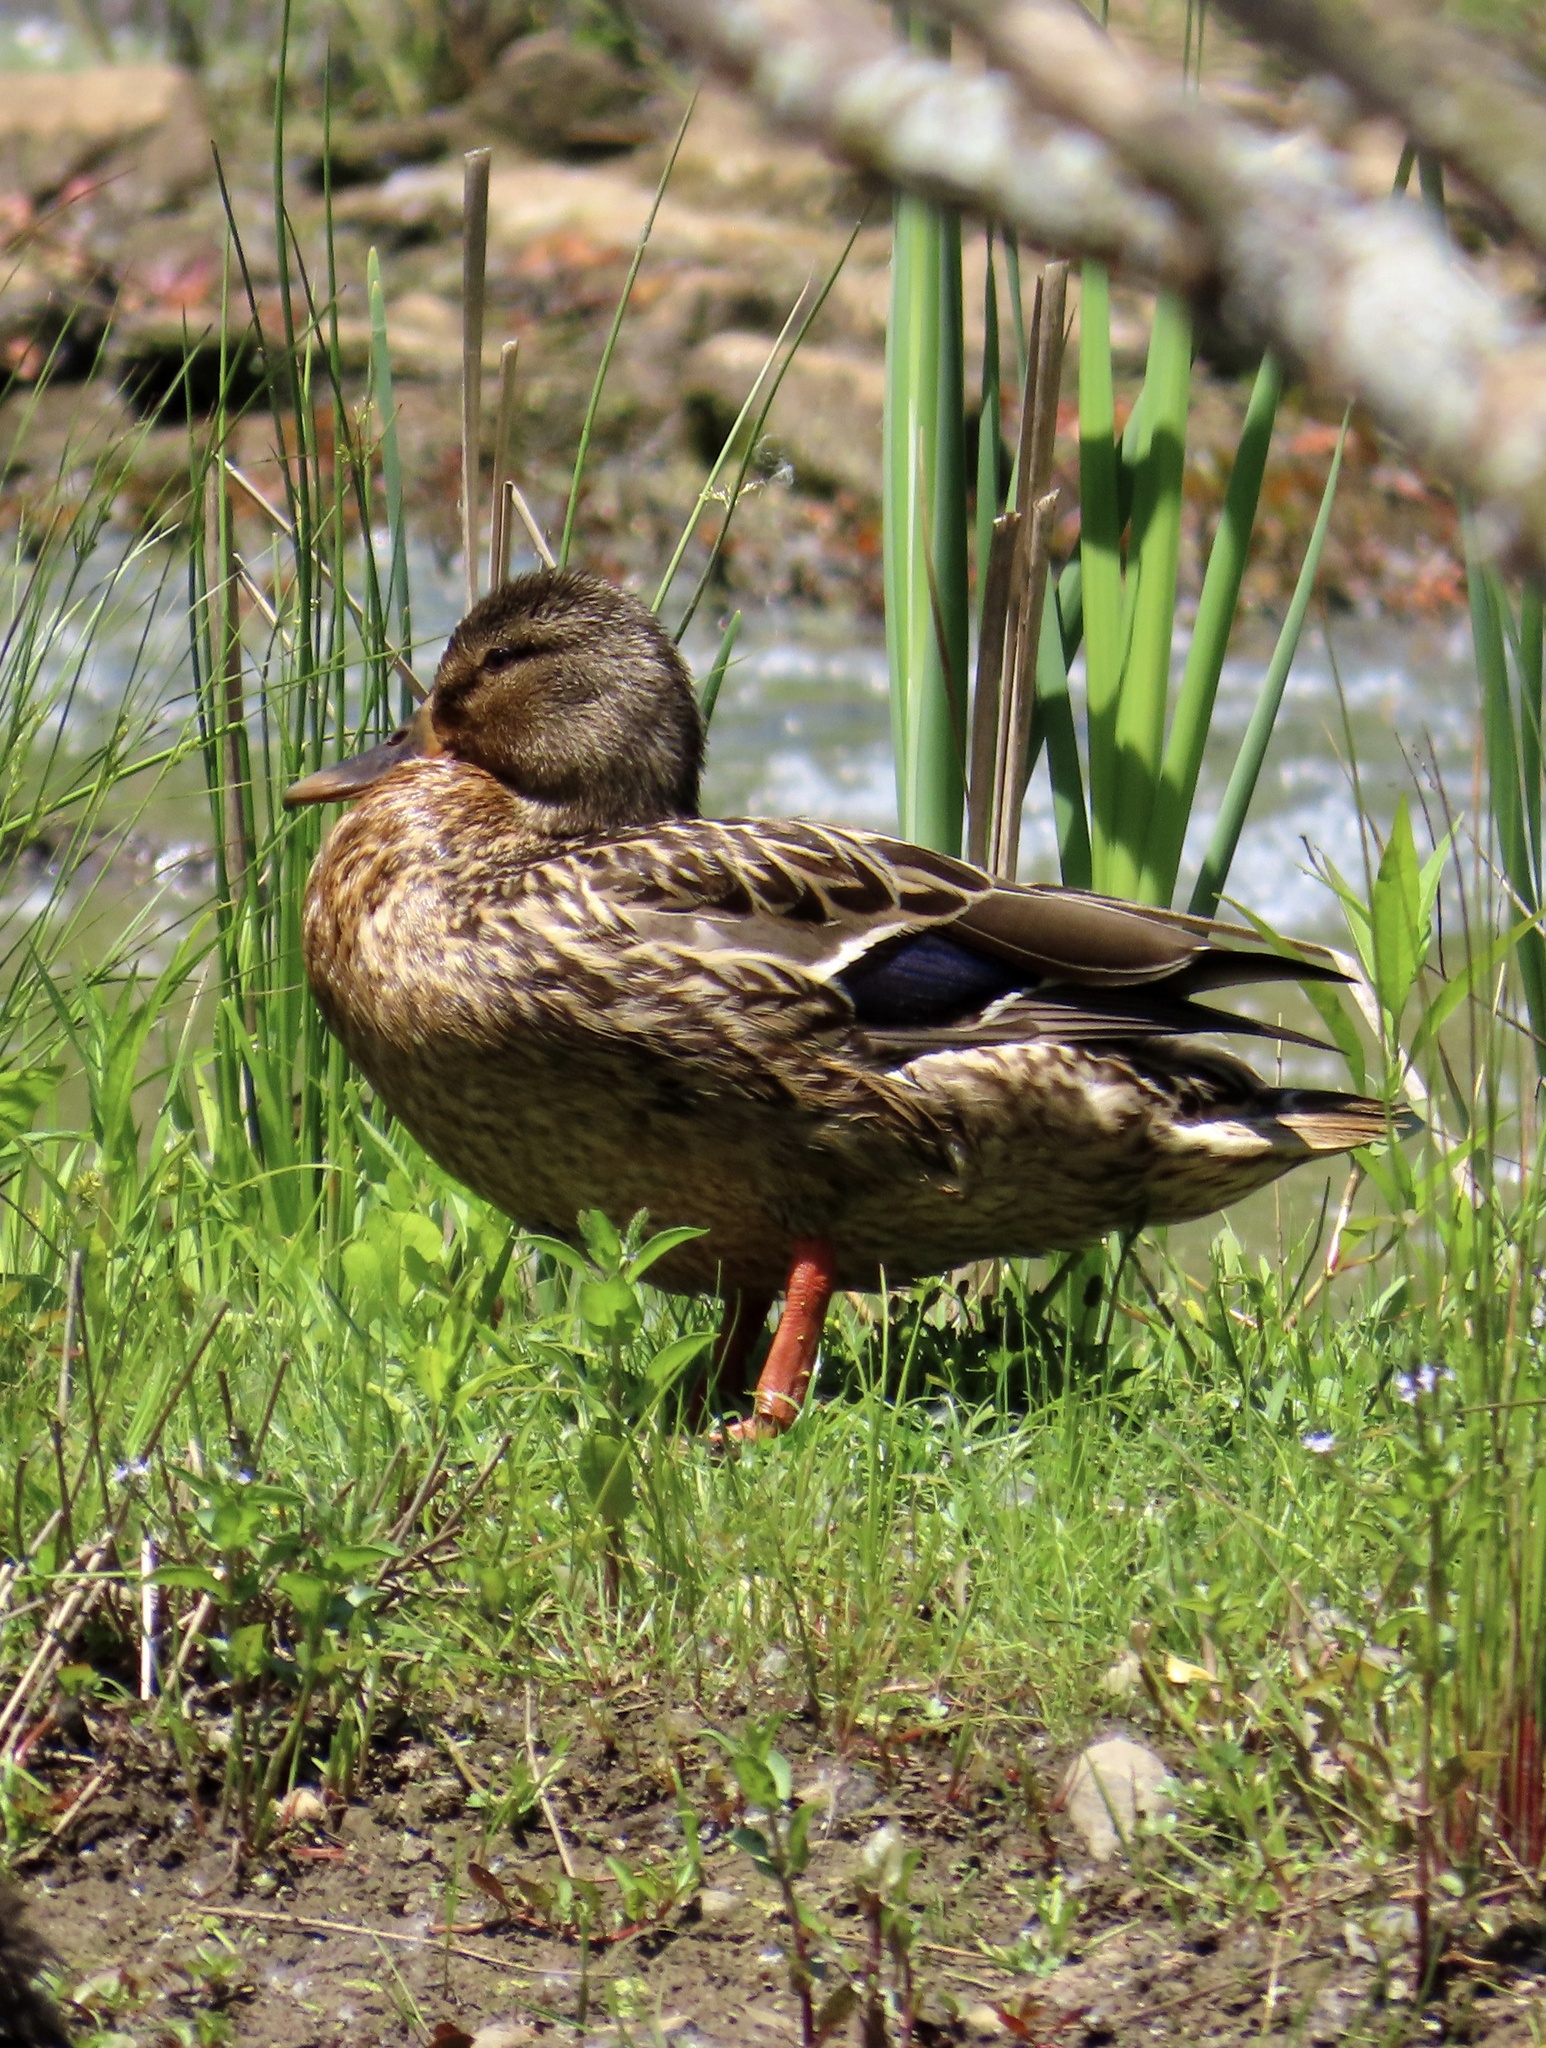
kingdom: Animalia
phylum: Chordata
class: Aves
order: Anseriformes
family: Anatidae
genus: Anas
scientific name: Anas platyrhynchos
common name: Mallard
